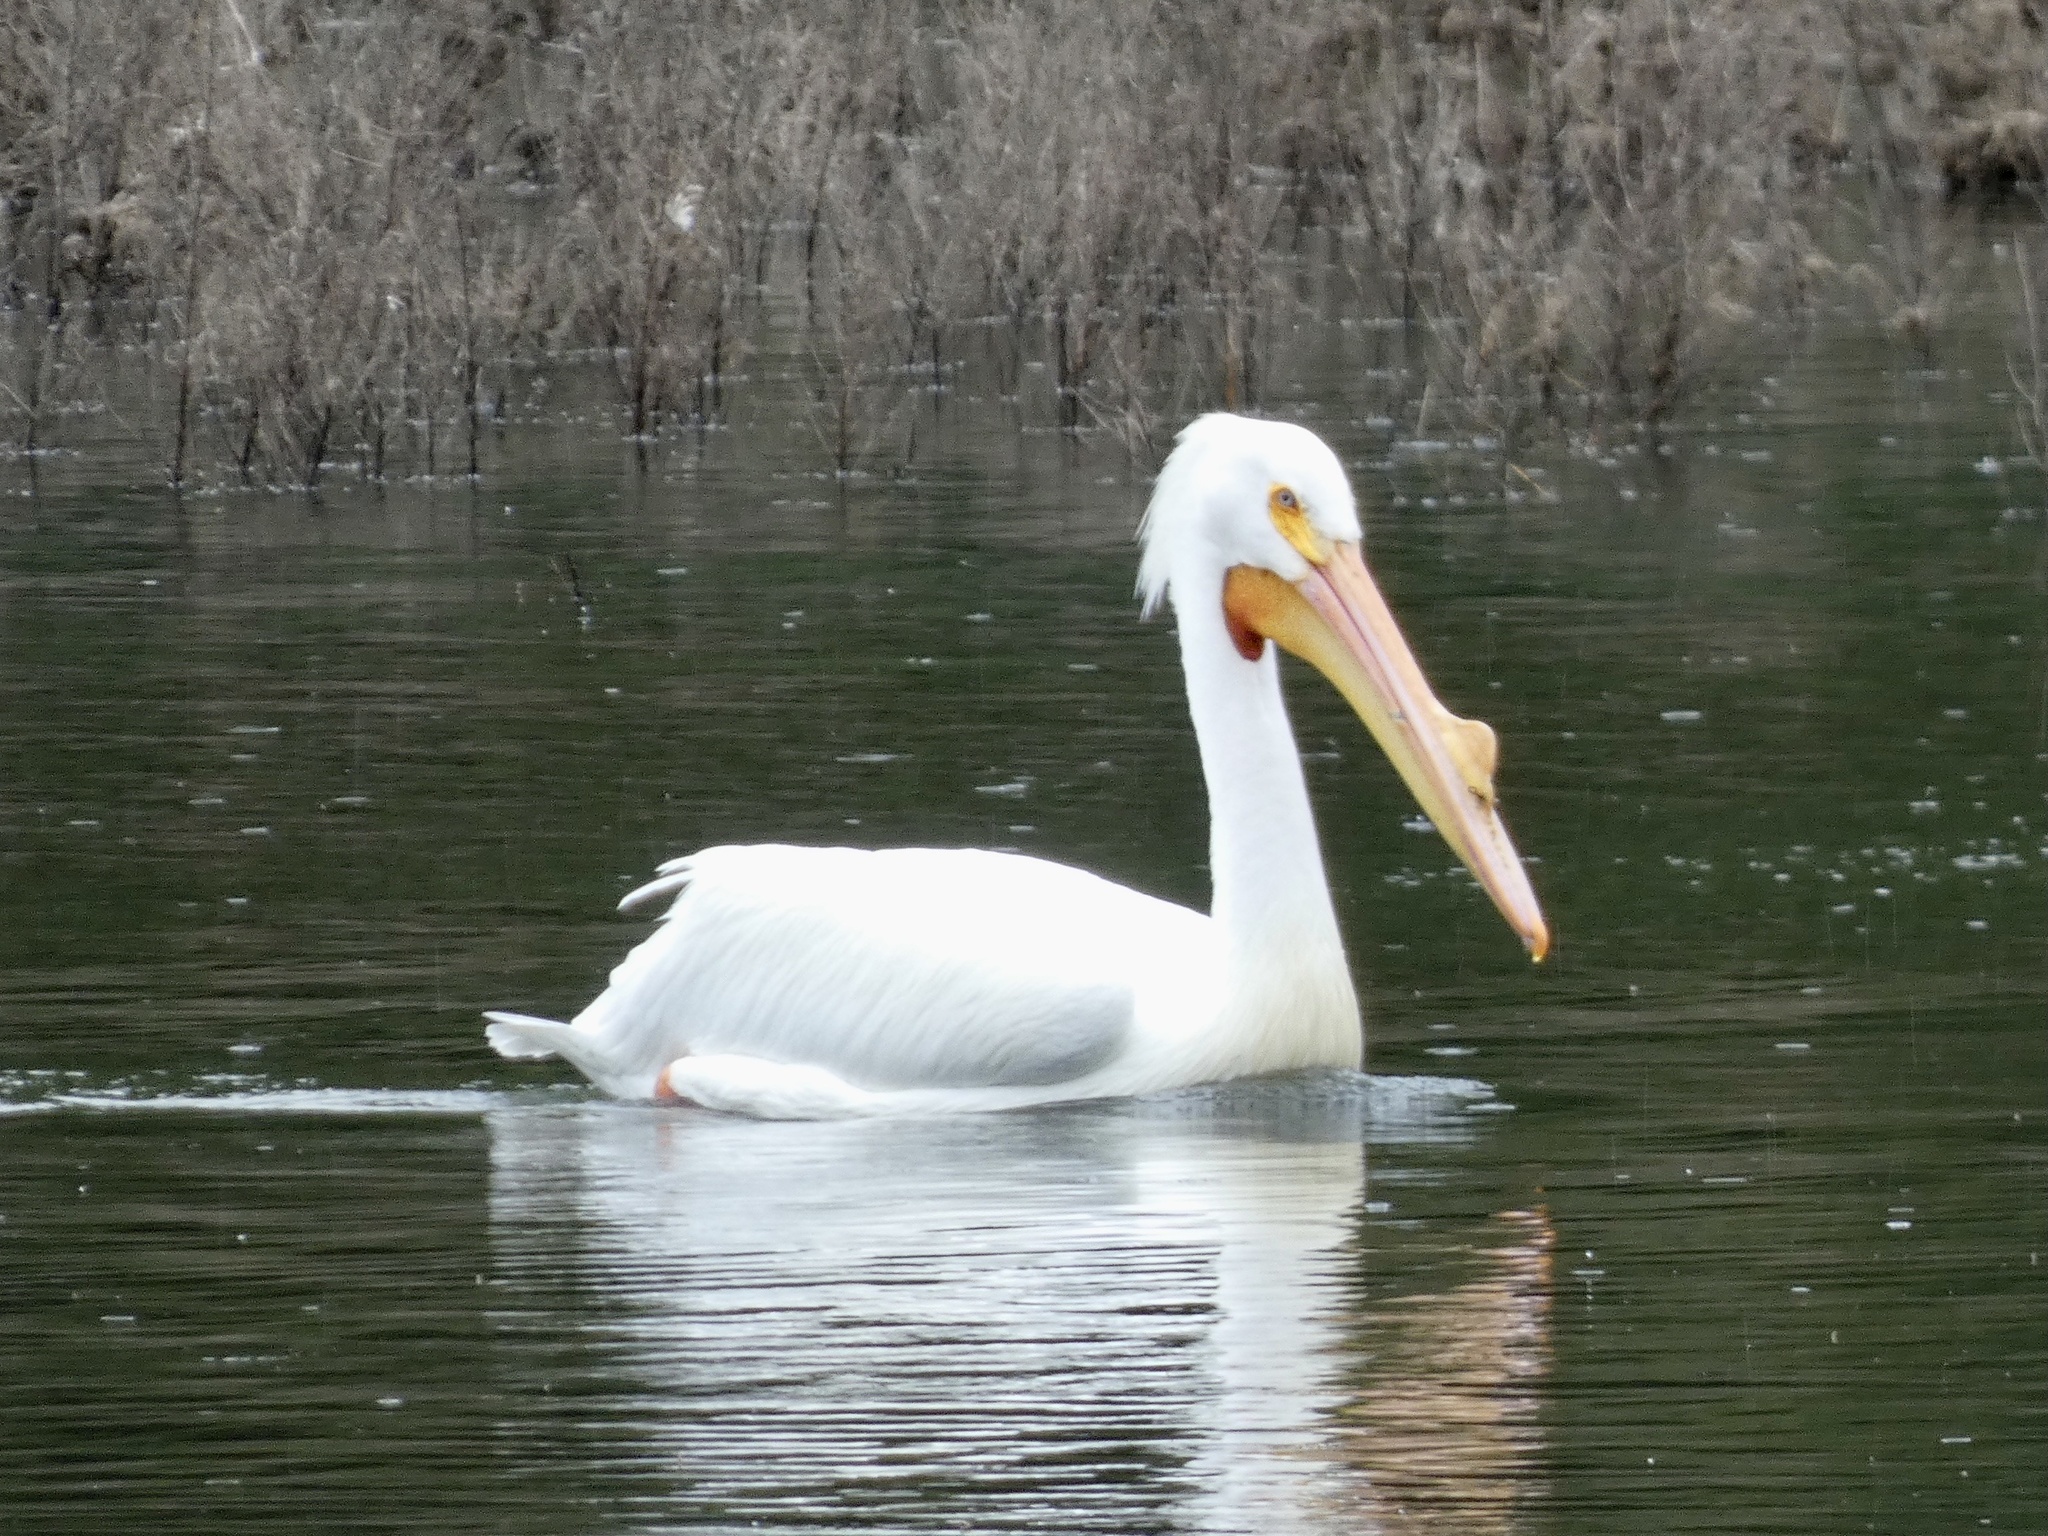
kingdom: Animalia
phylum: Chordata
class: Aves
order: Pelecaniformes
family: Pelecanidae
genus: Pelecanus
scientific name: Pelecanus erythrorhynchos
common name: American white pelican
